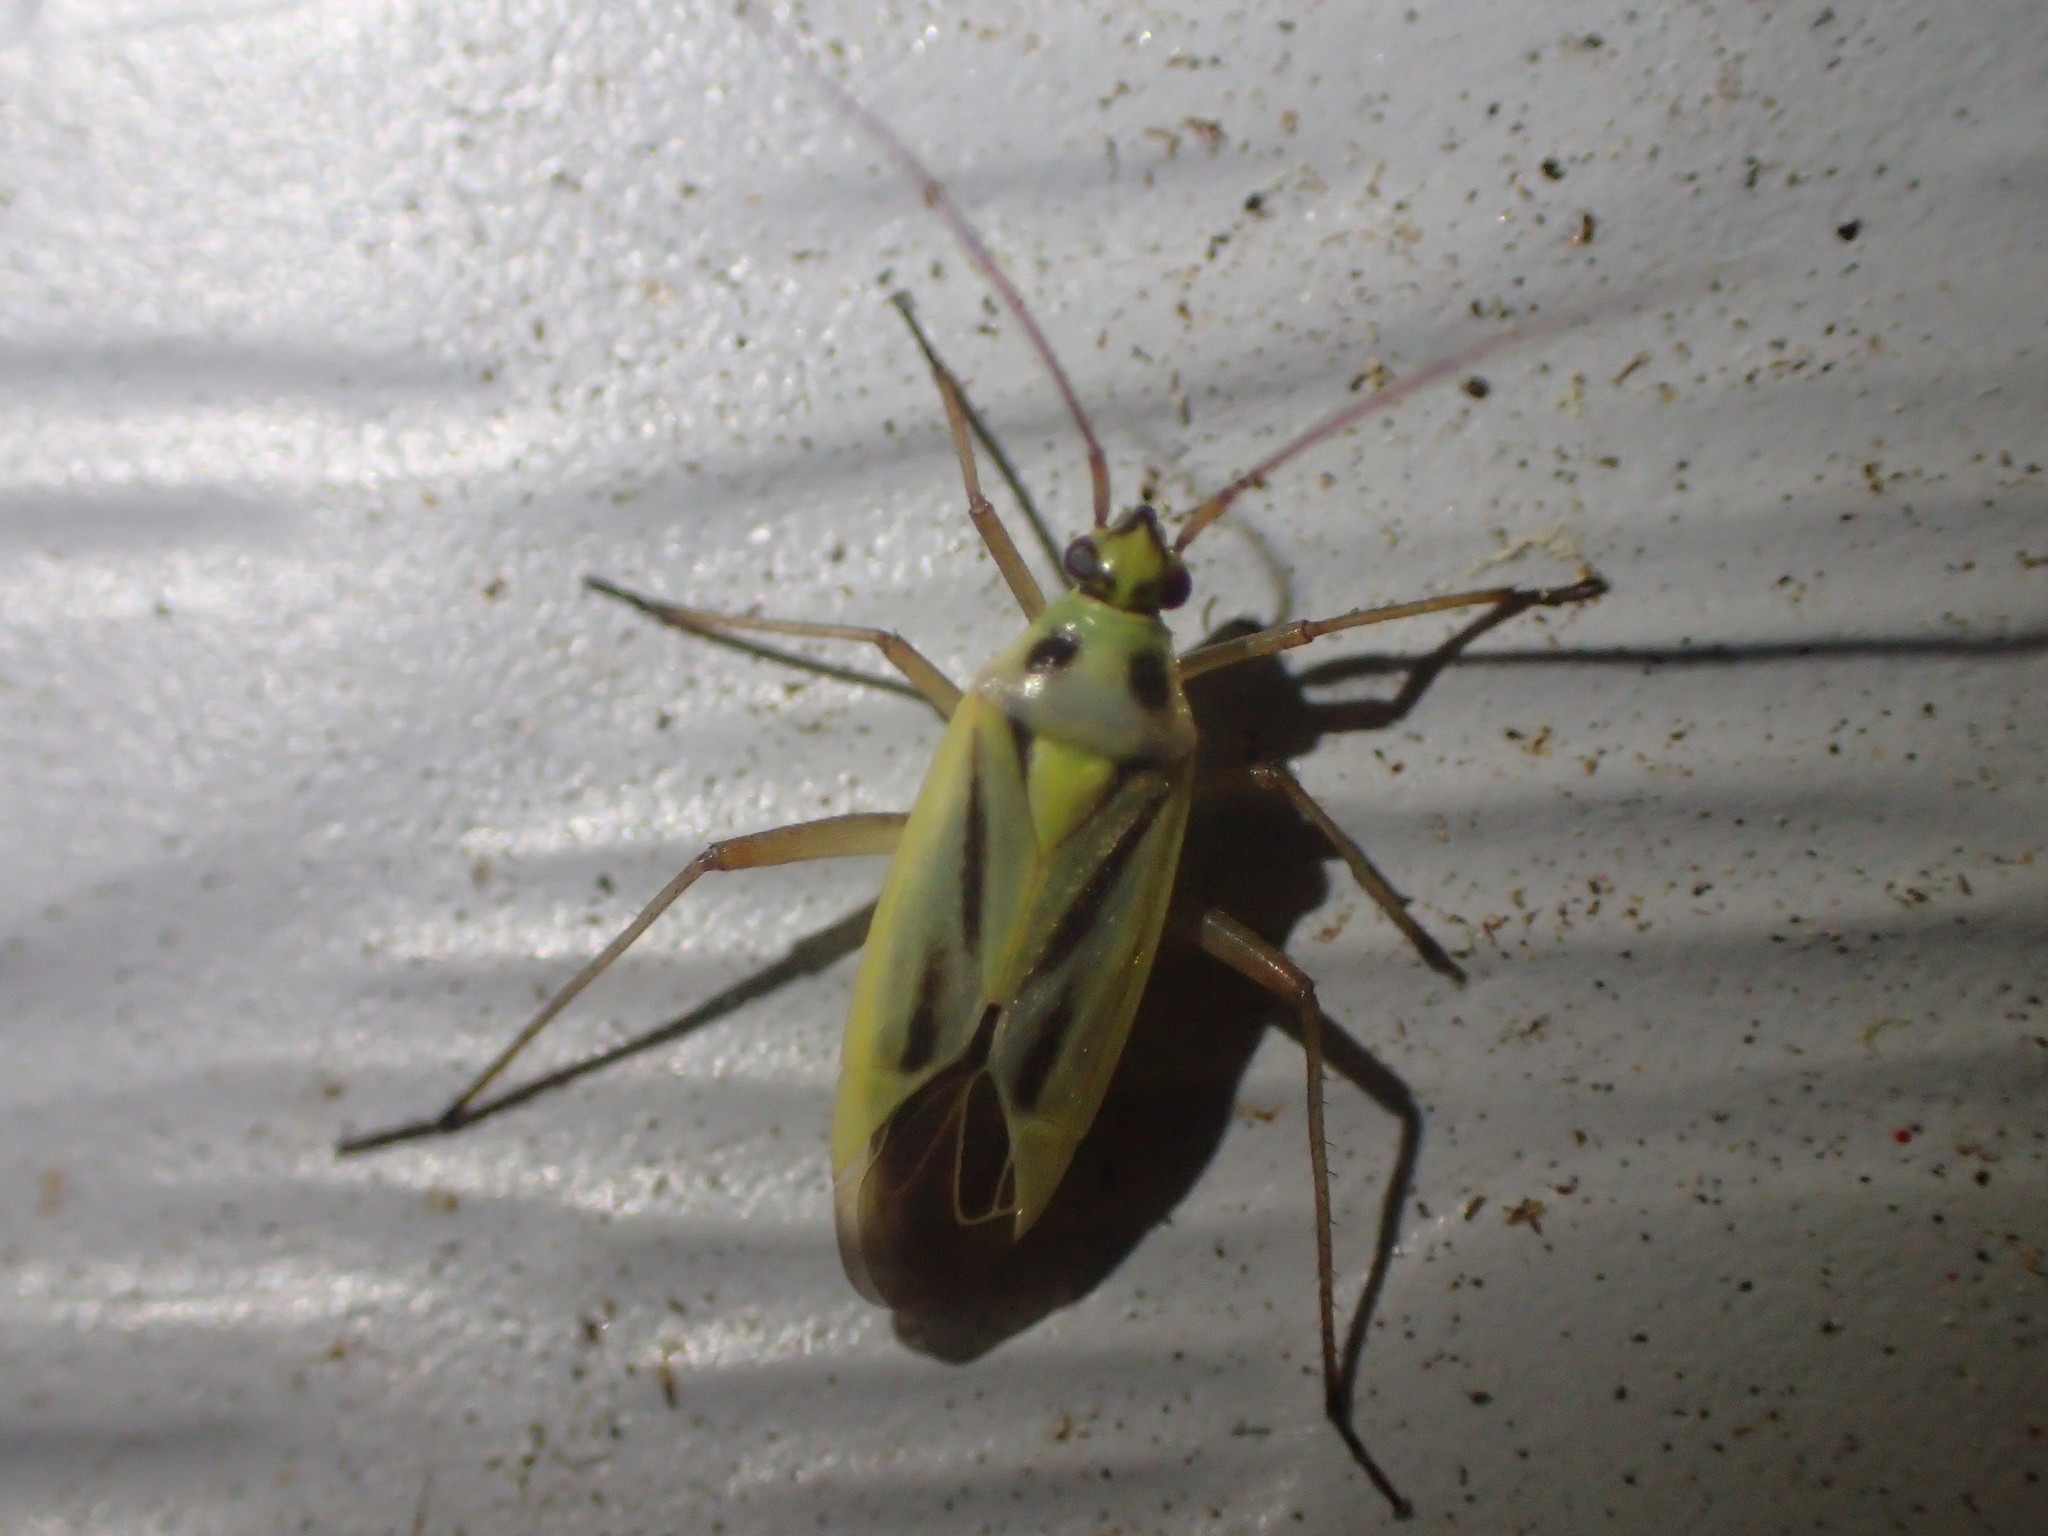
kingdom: Animalia
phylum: Arthropoda
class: Insecta
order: Hemiptera
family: Miridae
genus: Stenotus
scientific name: Stenotus binotatus
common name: Plant bug
